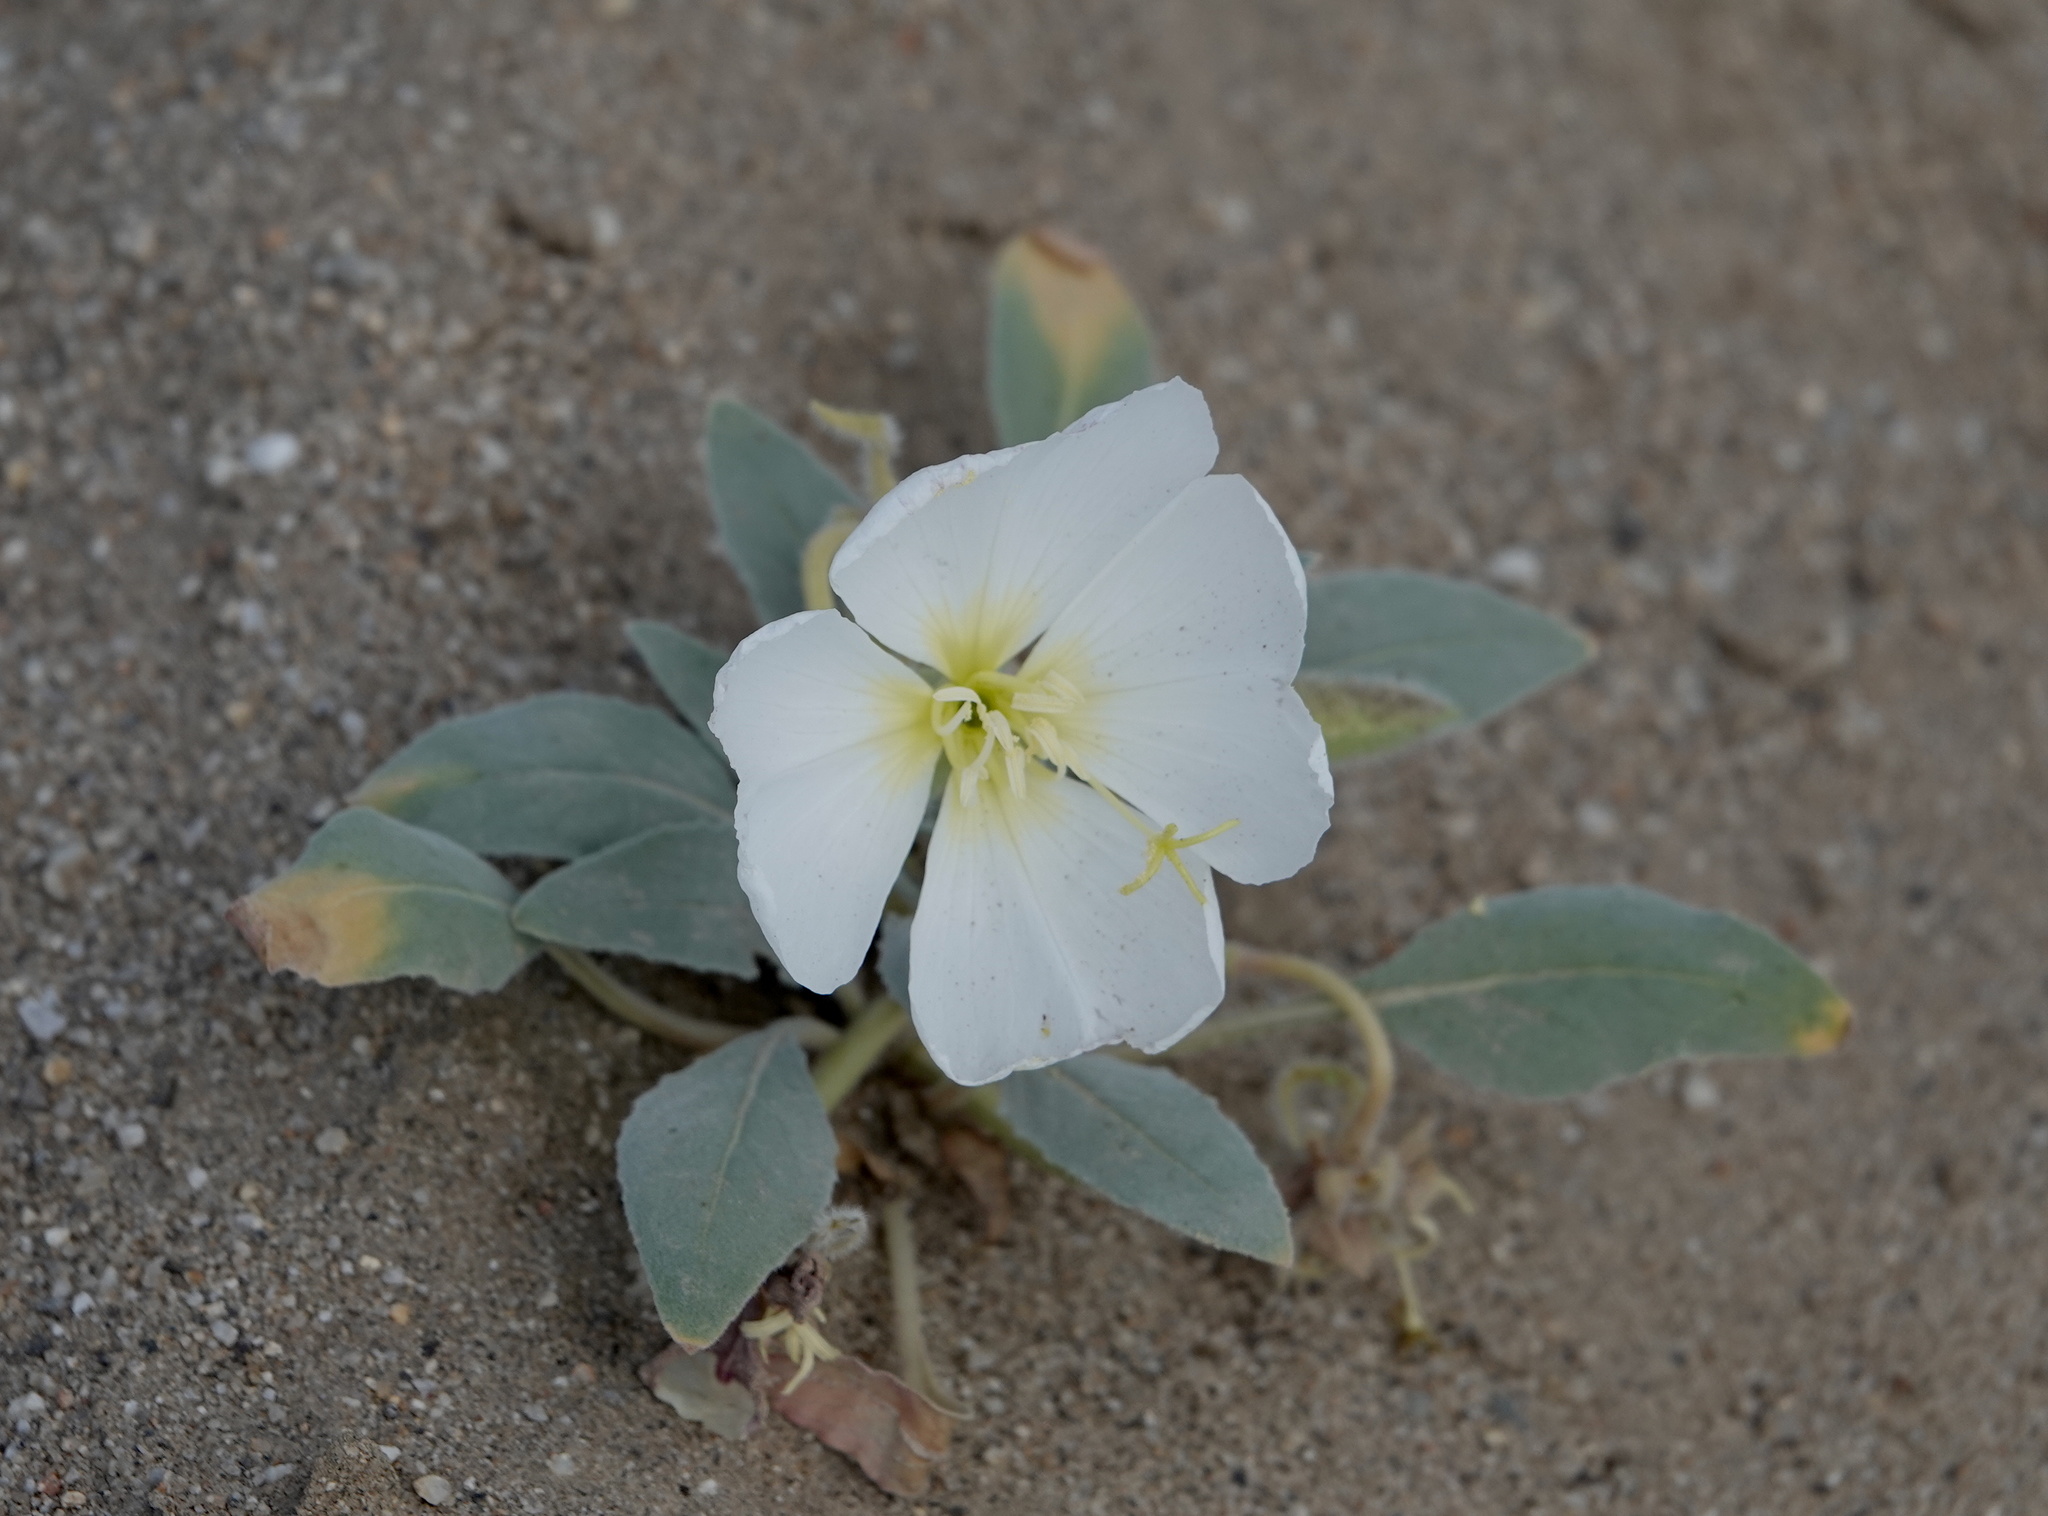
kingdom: Plantae
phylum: Tracheophyta
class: Magnoliopsida
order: Myrtales
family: Onagraceae
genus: Oenothera
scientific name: Oenothera deltoides
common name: Basket evening-primrose
